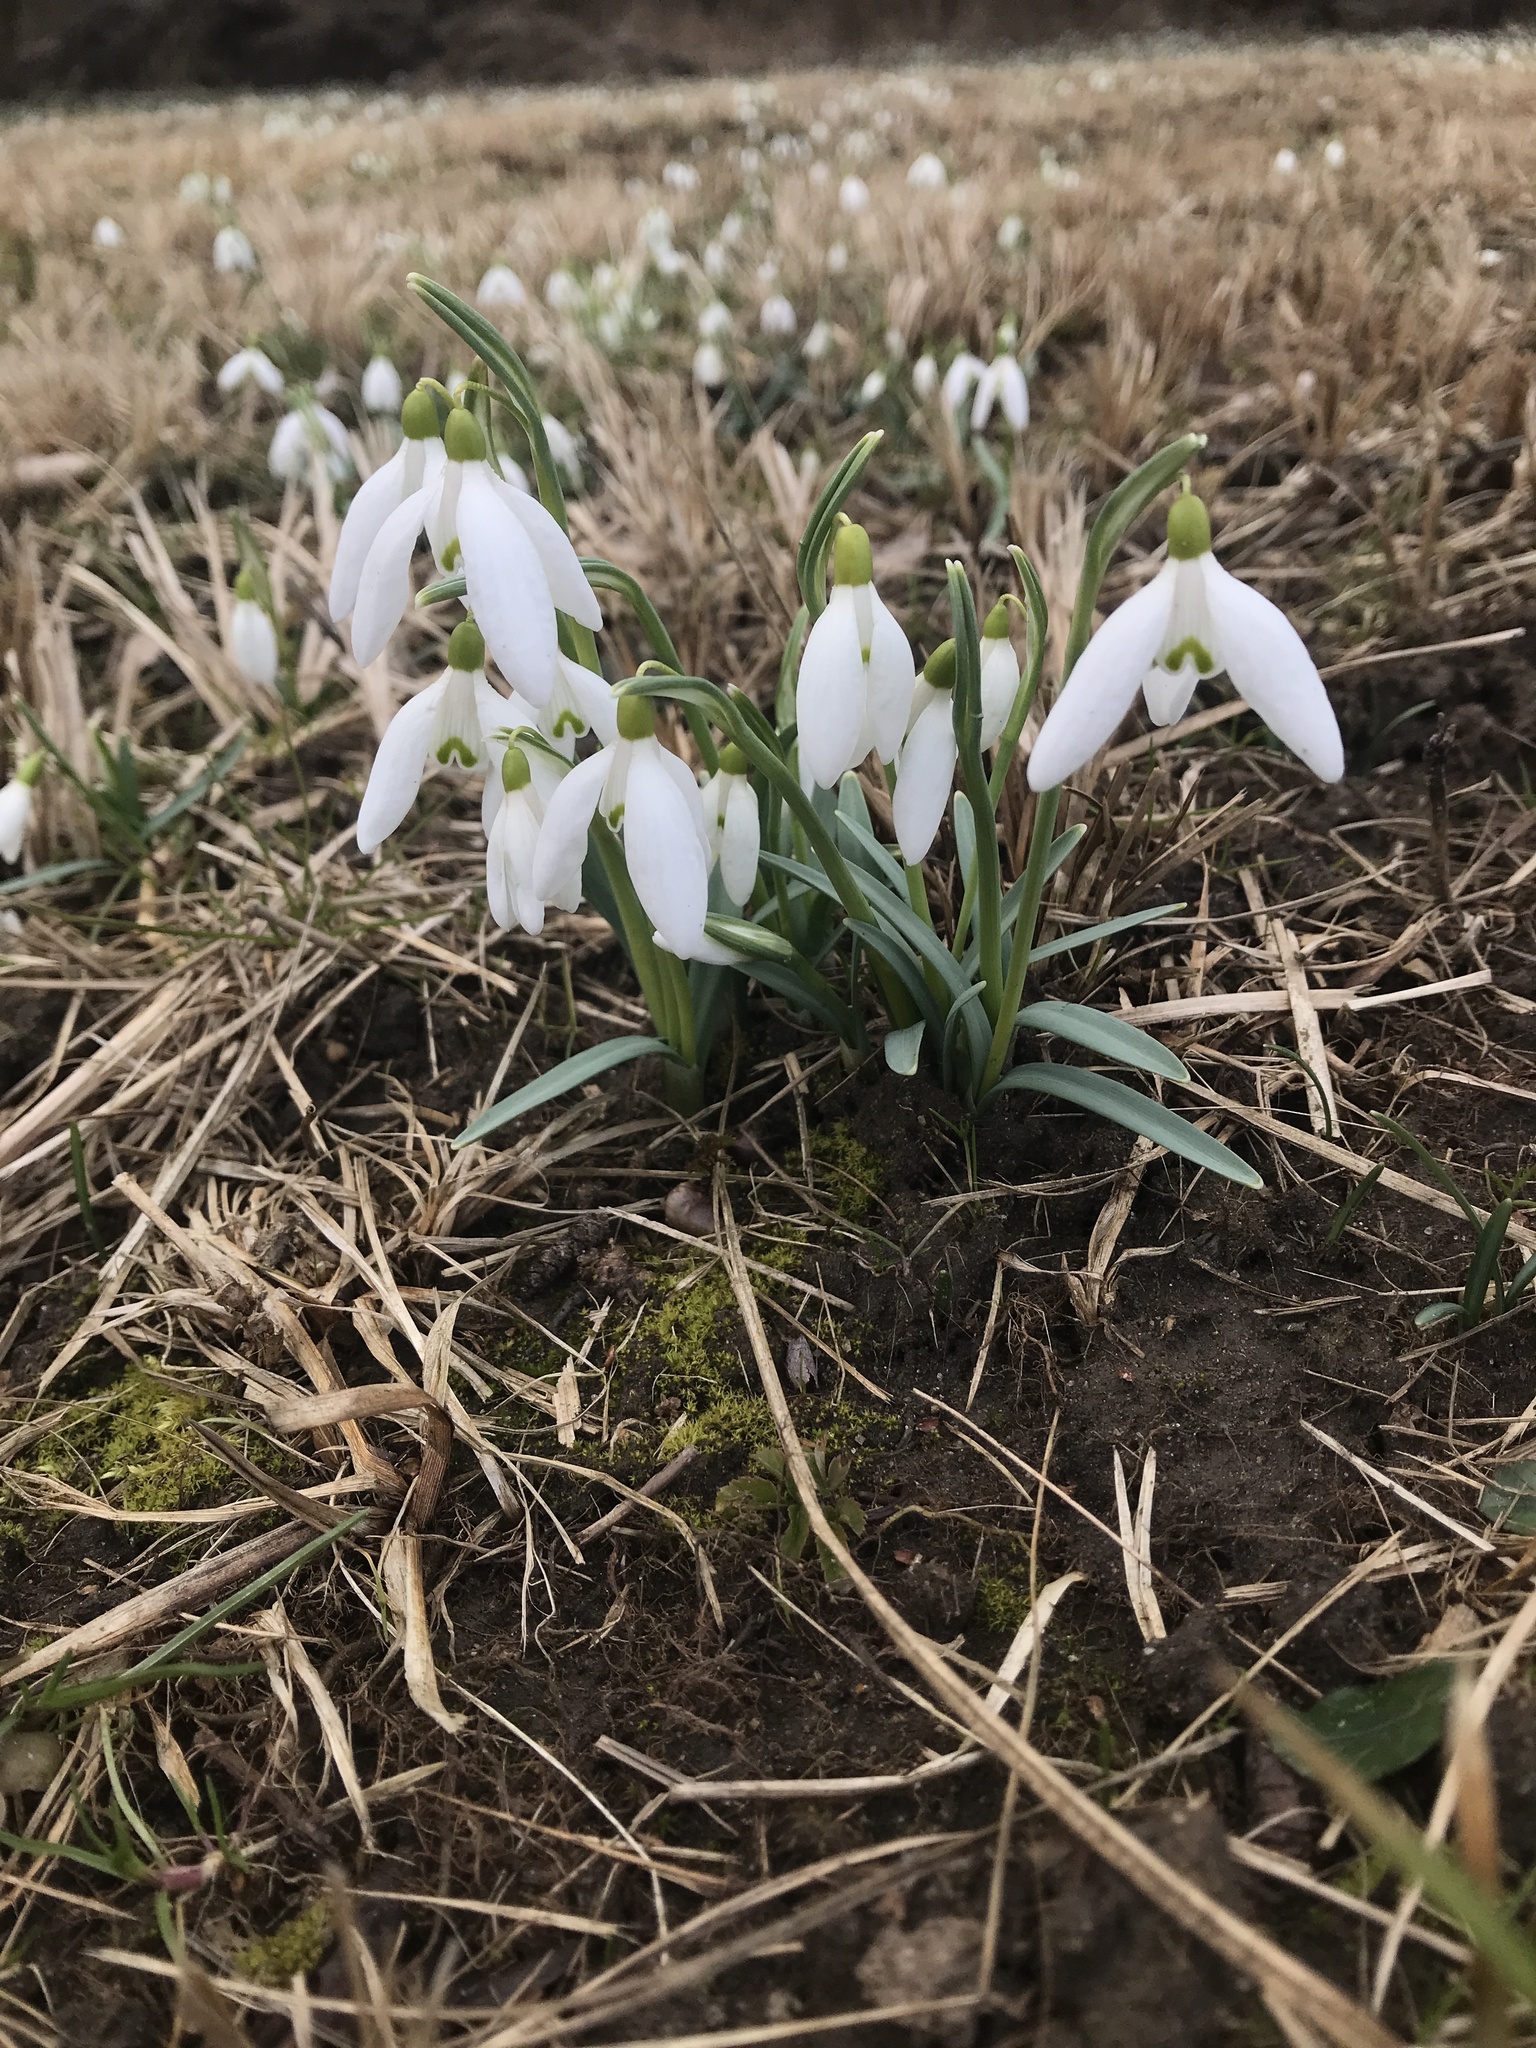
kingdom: Plantae
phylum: Tracheophyta
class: Liliopsida
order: Asparagales
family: Amaryllidaceae
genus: Galanthus
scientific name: Galanthus nivalis
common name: Snowdrop
